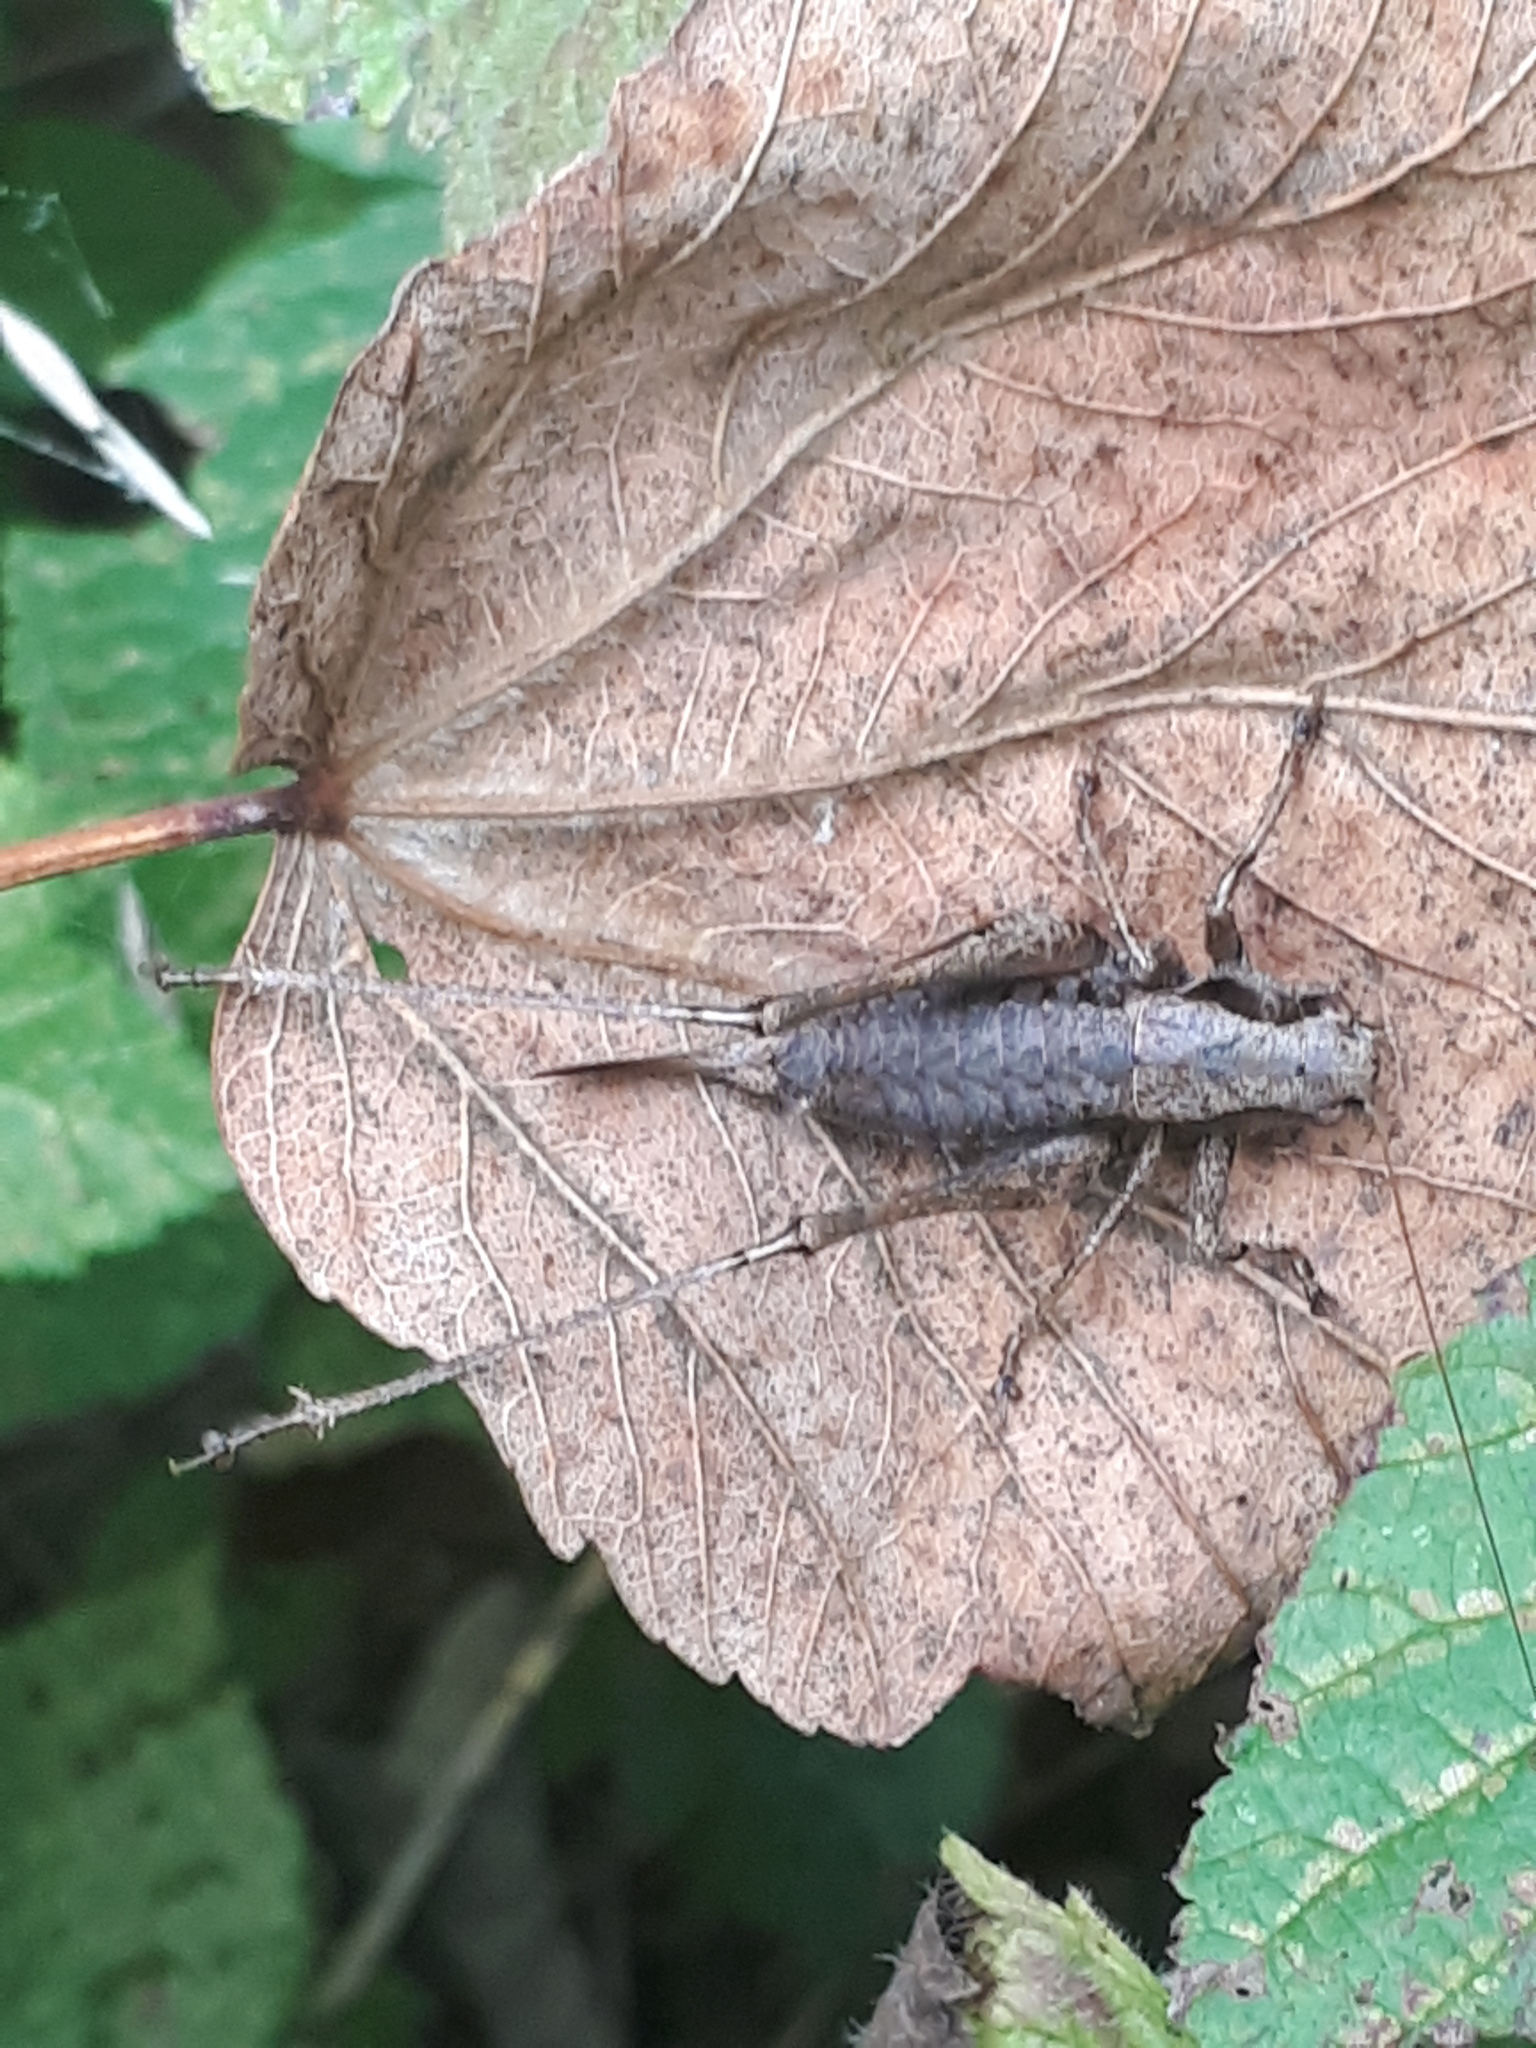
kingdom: Animalia
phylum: Arthropoda
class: Insecta
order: Orthoptera
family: Tettigoniidae
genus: Pholidoptera
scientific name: Pholidoptera griseoaptera
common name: Dark bush-cricket
